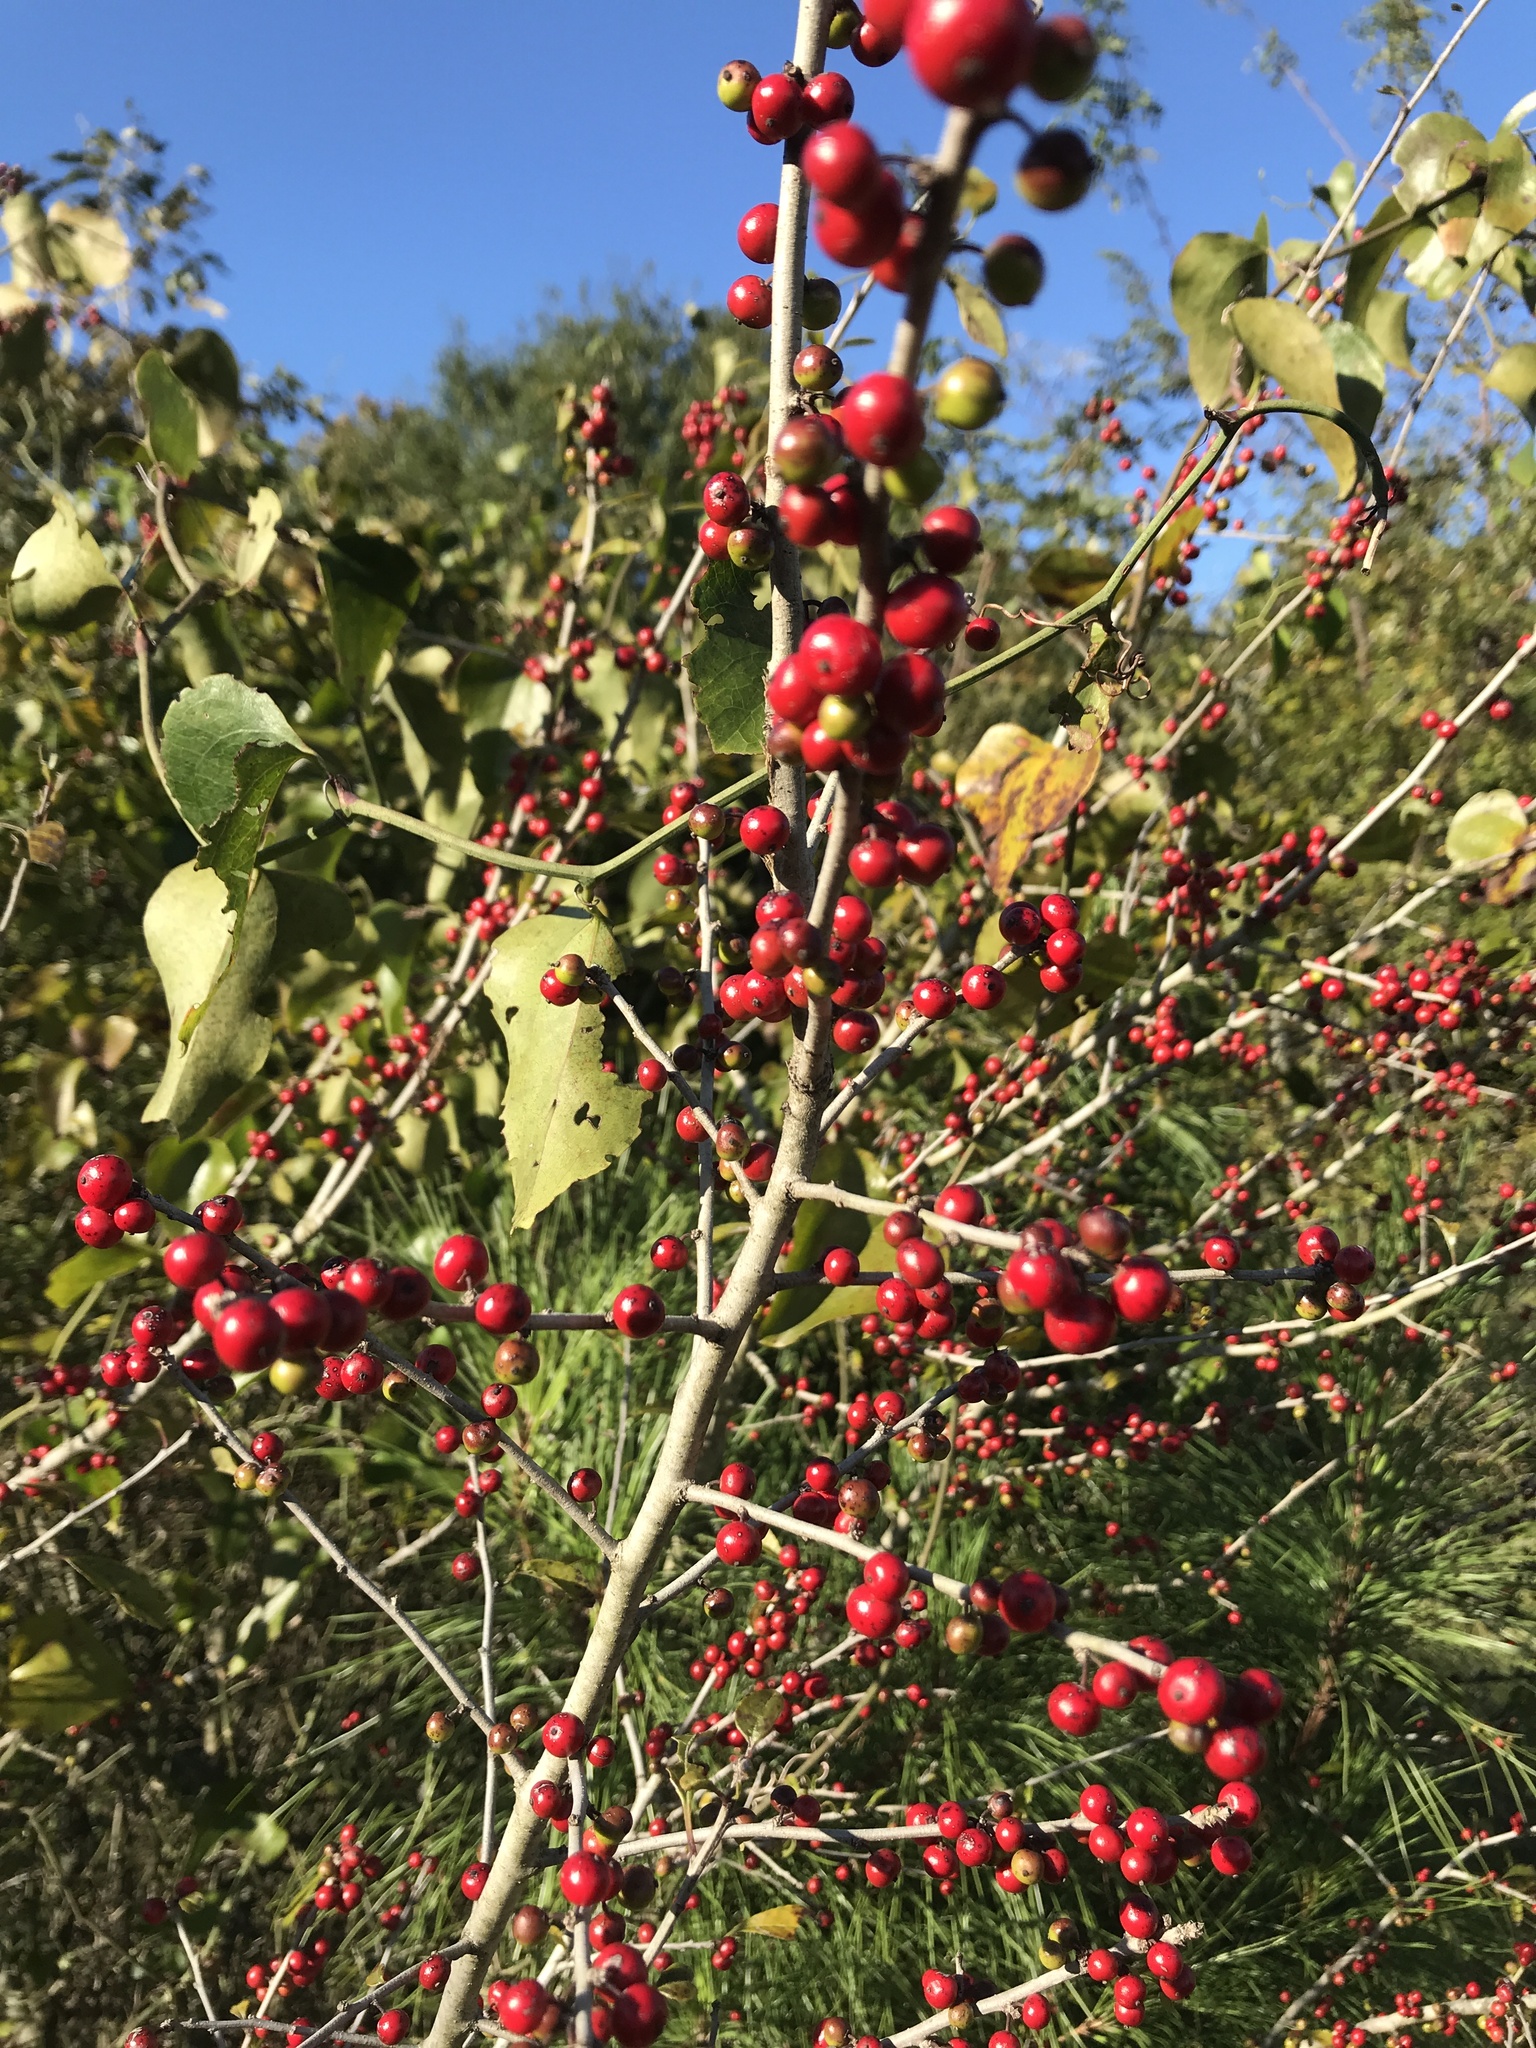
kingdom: Plantae
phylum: Tracheophyta
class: Magnoliopsida
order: Aquifoliales
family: Aquifoliaceae
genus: Ilex
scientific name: Ilex decidua
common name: Possum-haw
